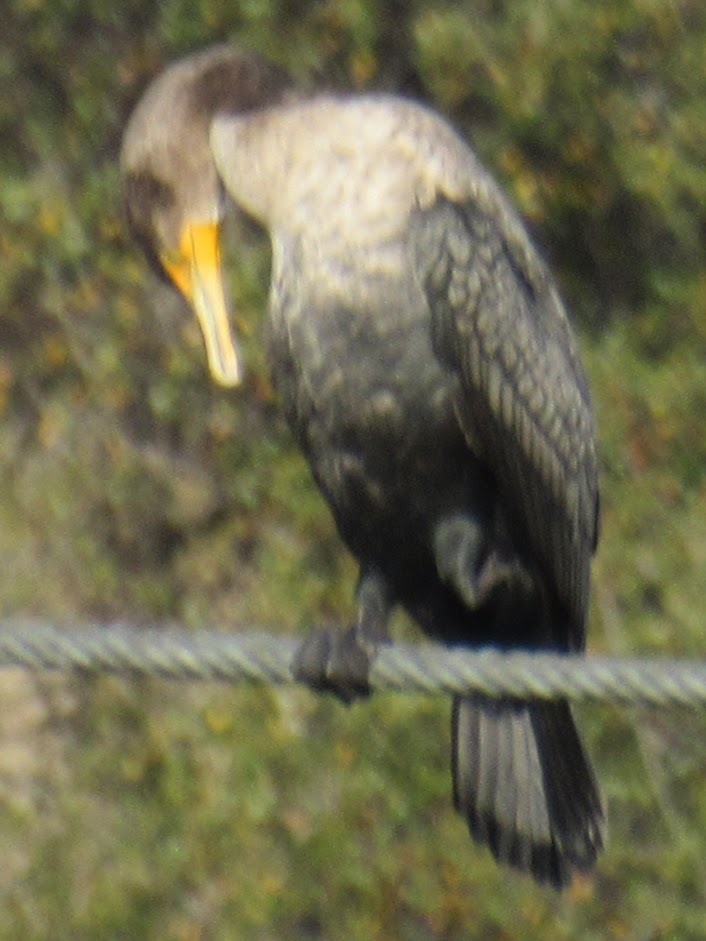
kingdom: Animalia
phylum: Chordata
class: Aves
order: Suliformes
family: Phalacrocoracidae
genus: Phalacrocorax
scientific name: Phalacrocorax auritus
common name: Double-crested cormorant
